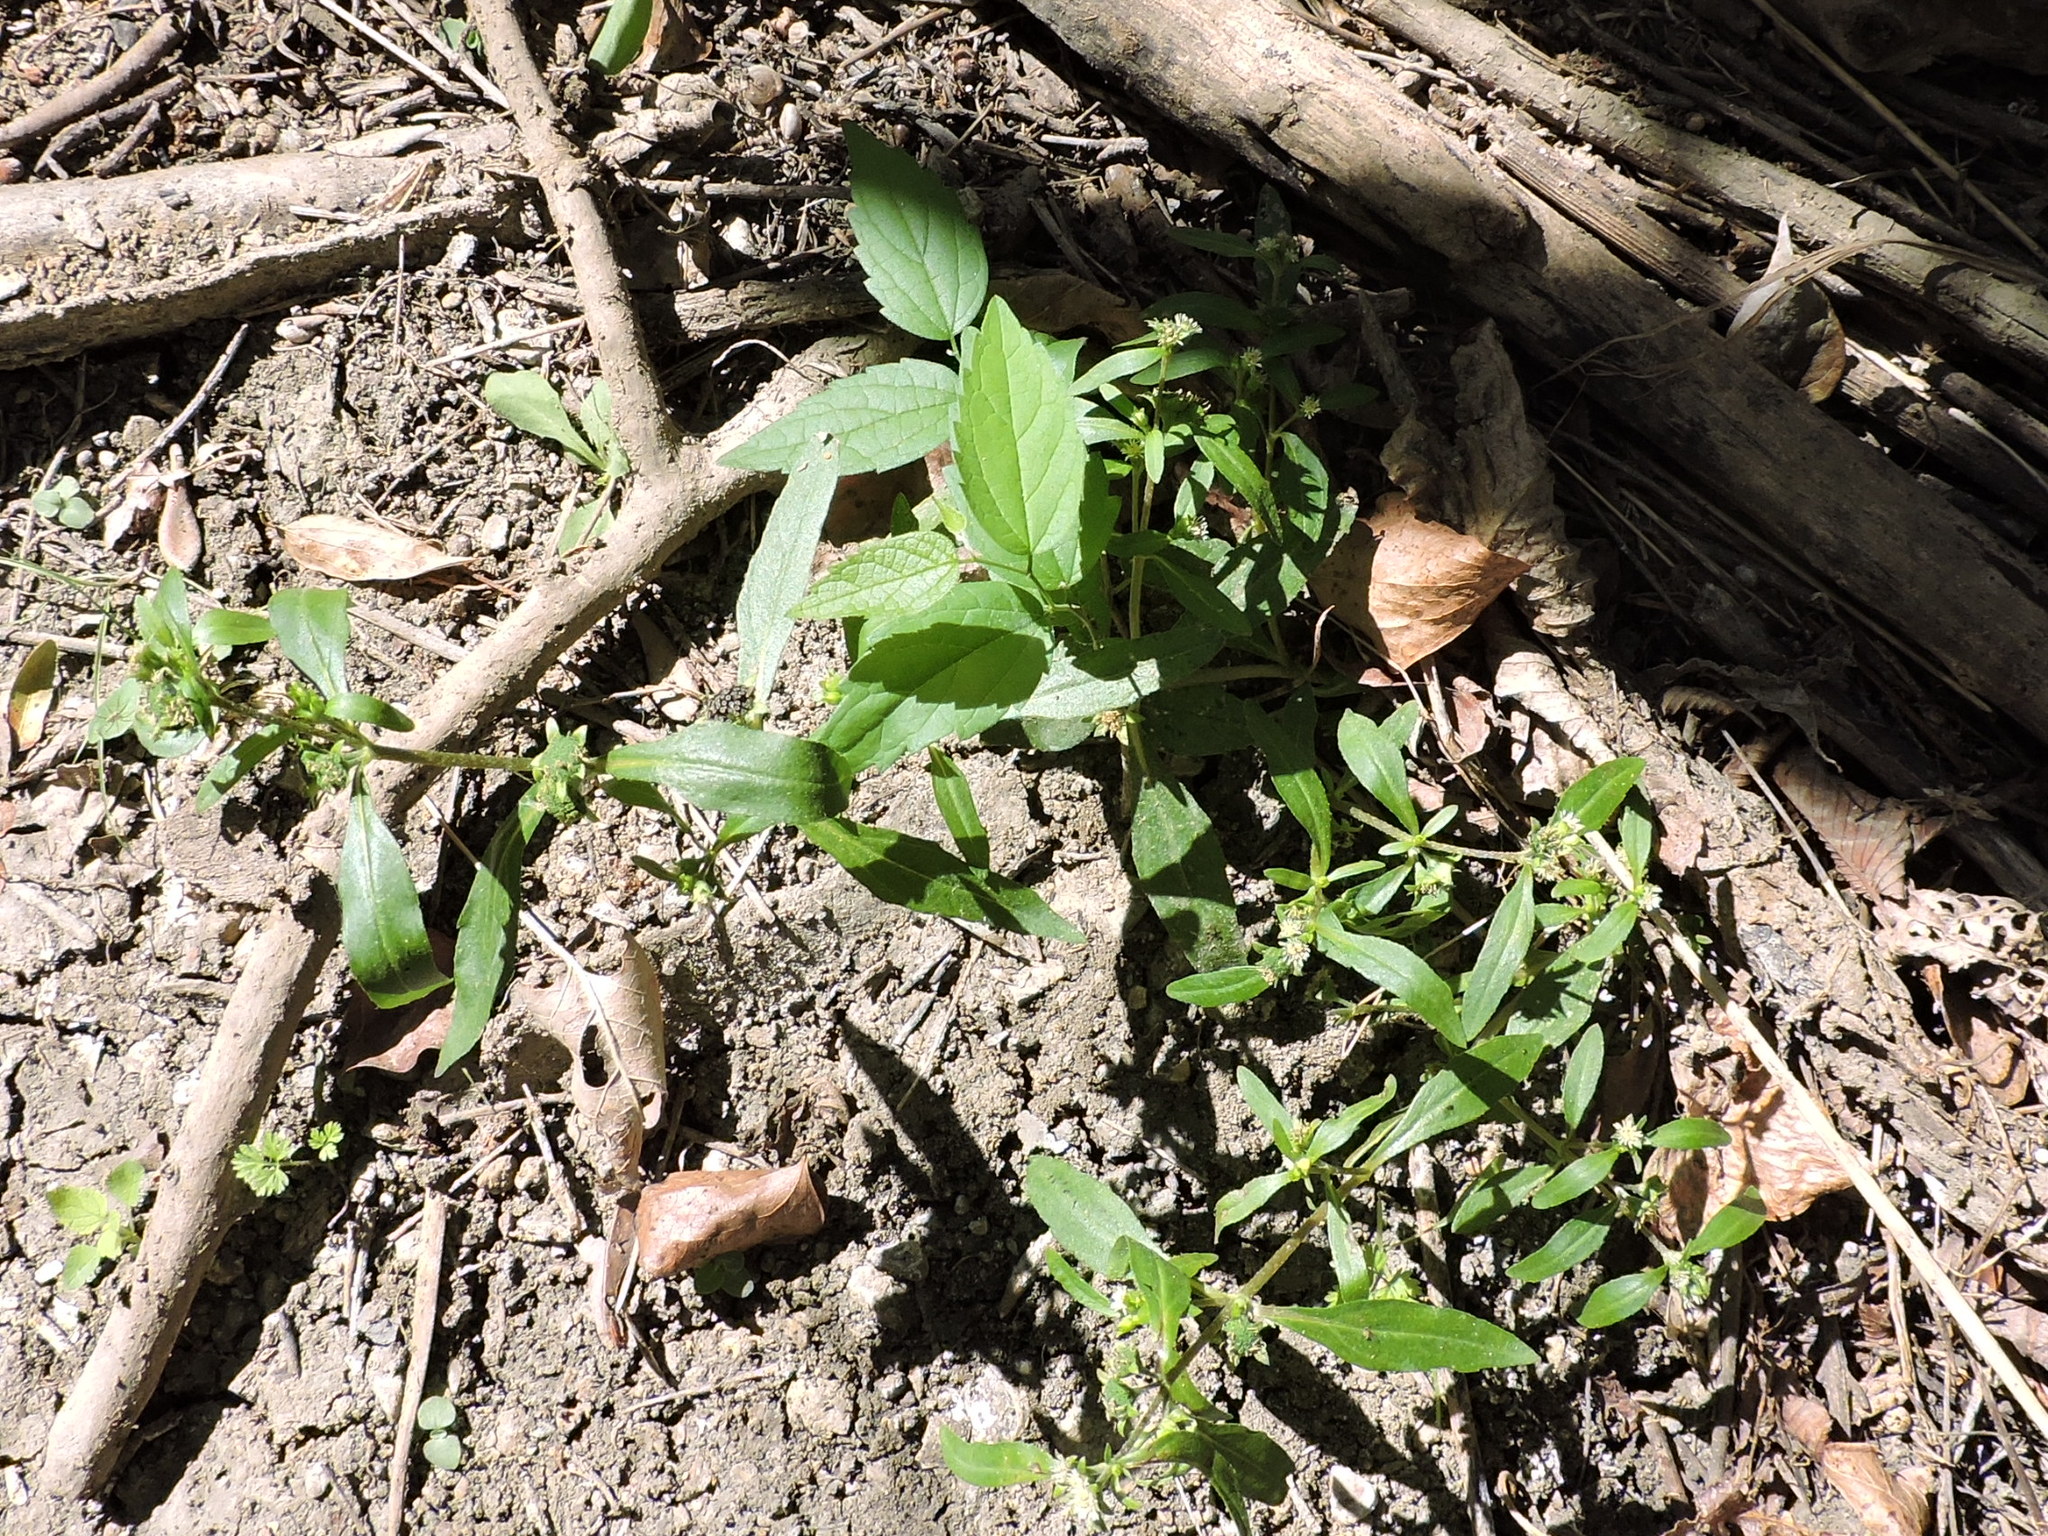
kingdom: Plantae
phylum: Tracheophyta
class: Magnoliopsida
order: Asterales
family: Asteraceae
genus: Eclipta
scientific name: Eclipta prostrata
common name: False daisy
